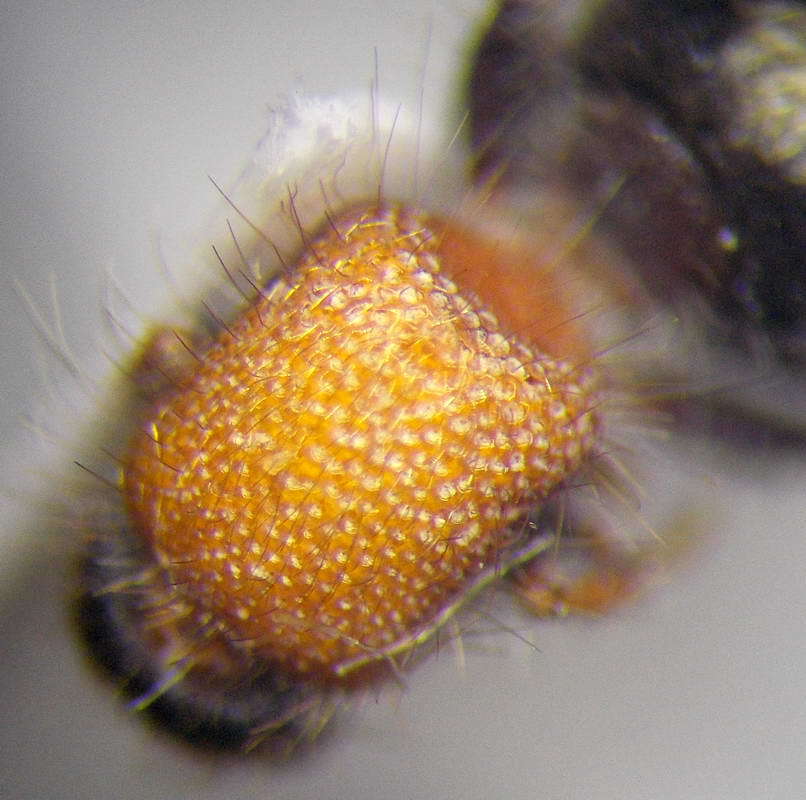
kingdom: Animalia
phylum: Arthropoda
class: Insecta
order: Hymenoptera
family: Mutillidae
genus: Smicromyrme
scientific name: Smicromyrme ruficollis
